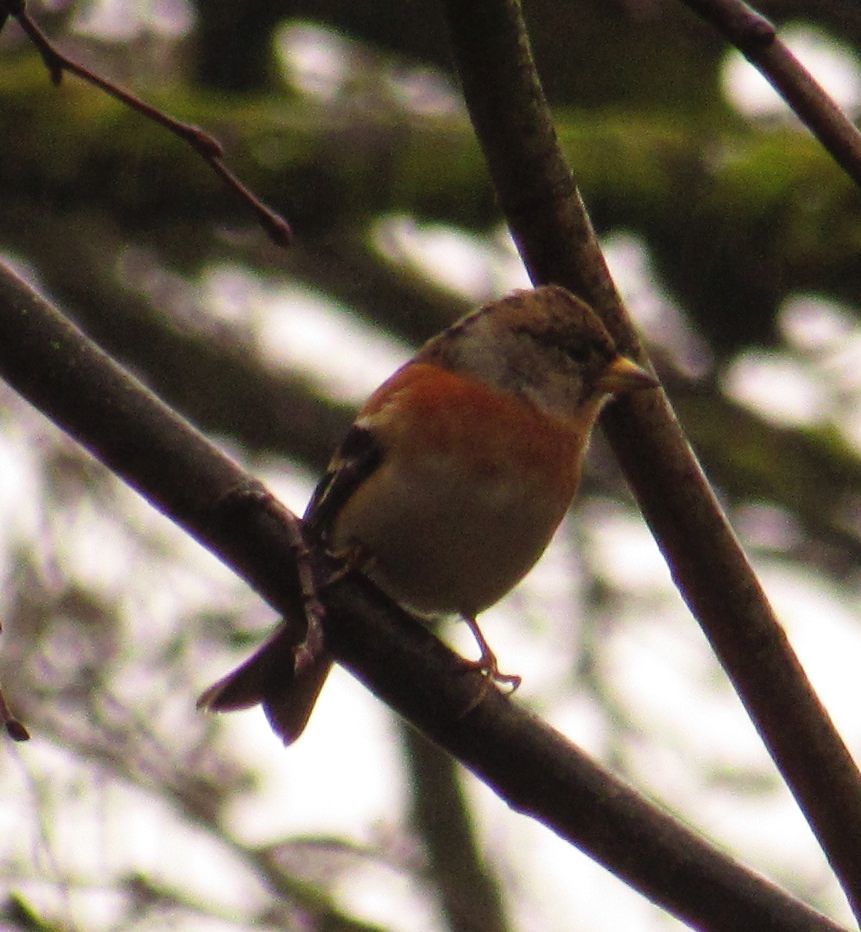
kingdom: Animalia
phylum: Chordata
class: Aves
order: Passeriformes
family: Fringillidae
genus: Fringilla
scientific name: Fringilla montifringilla
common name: Brambling
